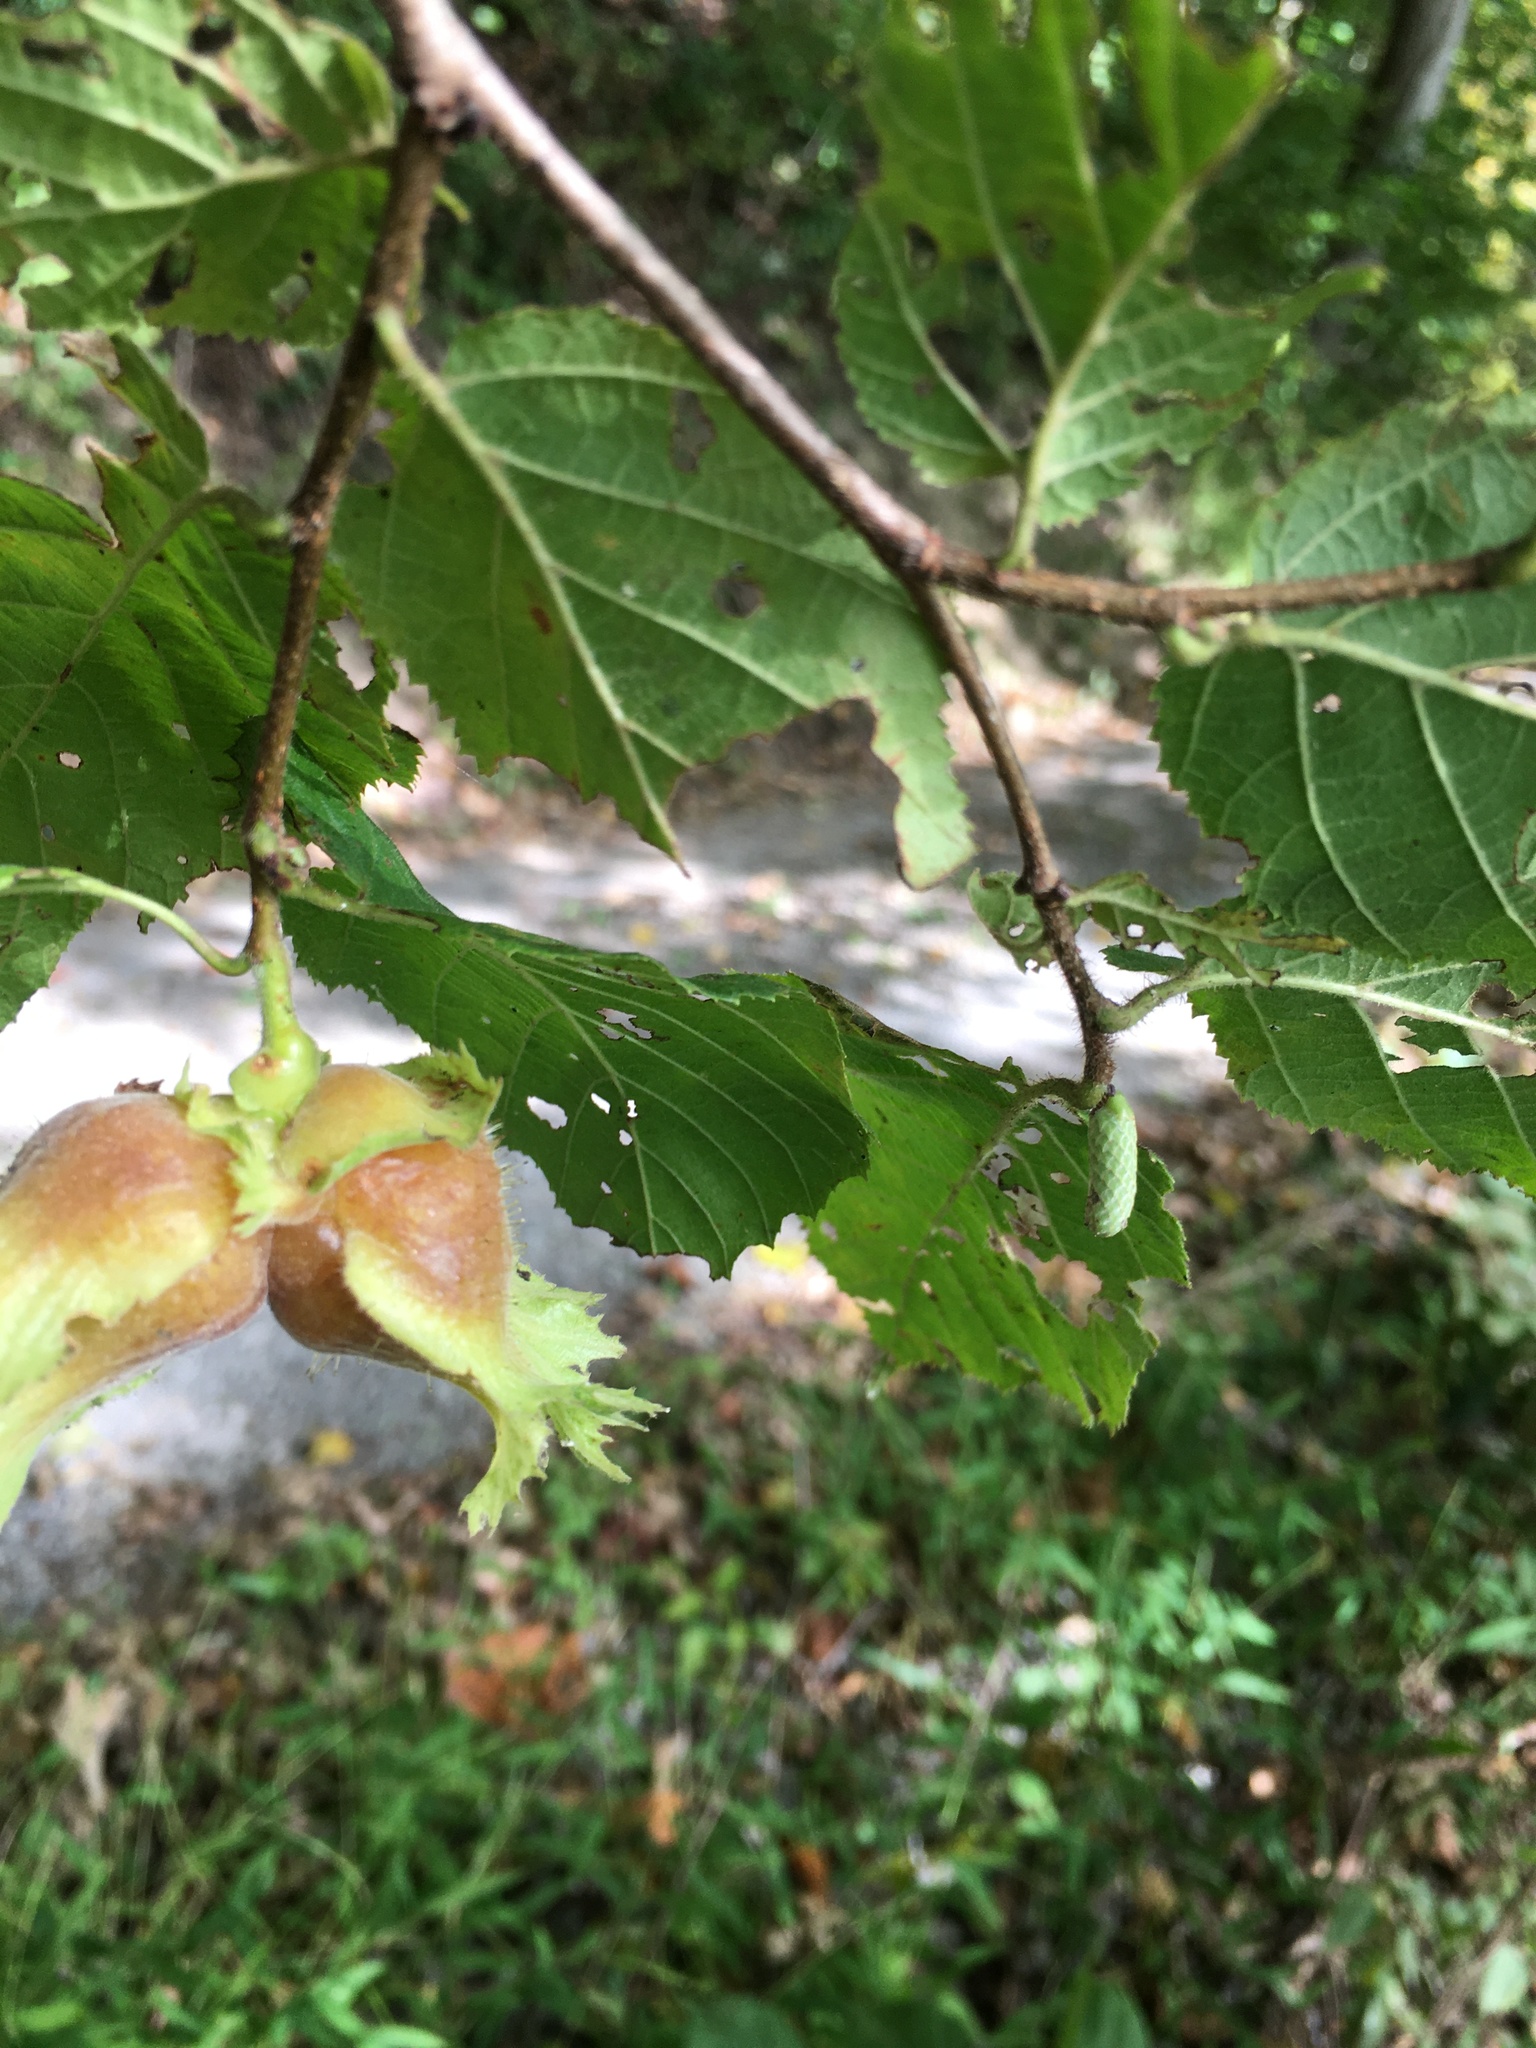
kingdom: Plantae
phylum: Tracheophyta
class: Magnoliopsida
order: Fagales
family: Betulaceae
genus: Corylus
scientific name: Corylus americana
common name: American hazel
